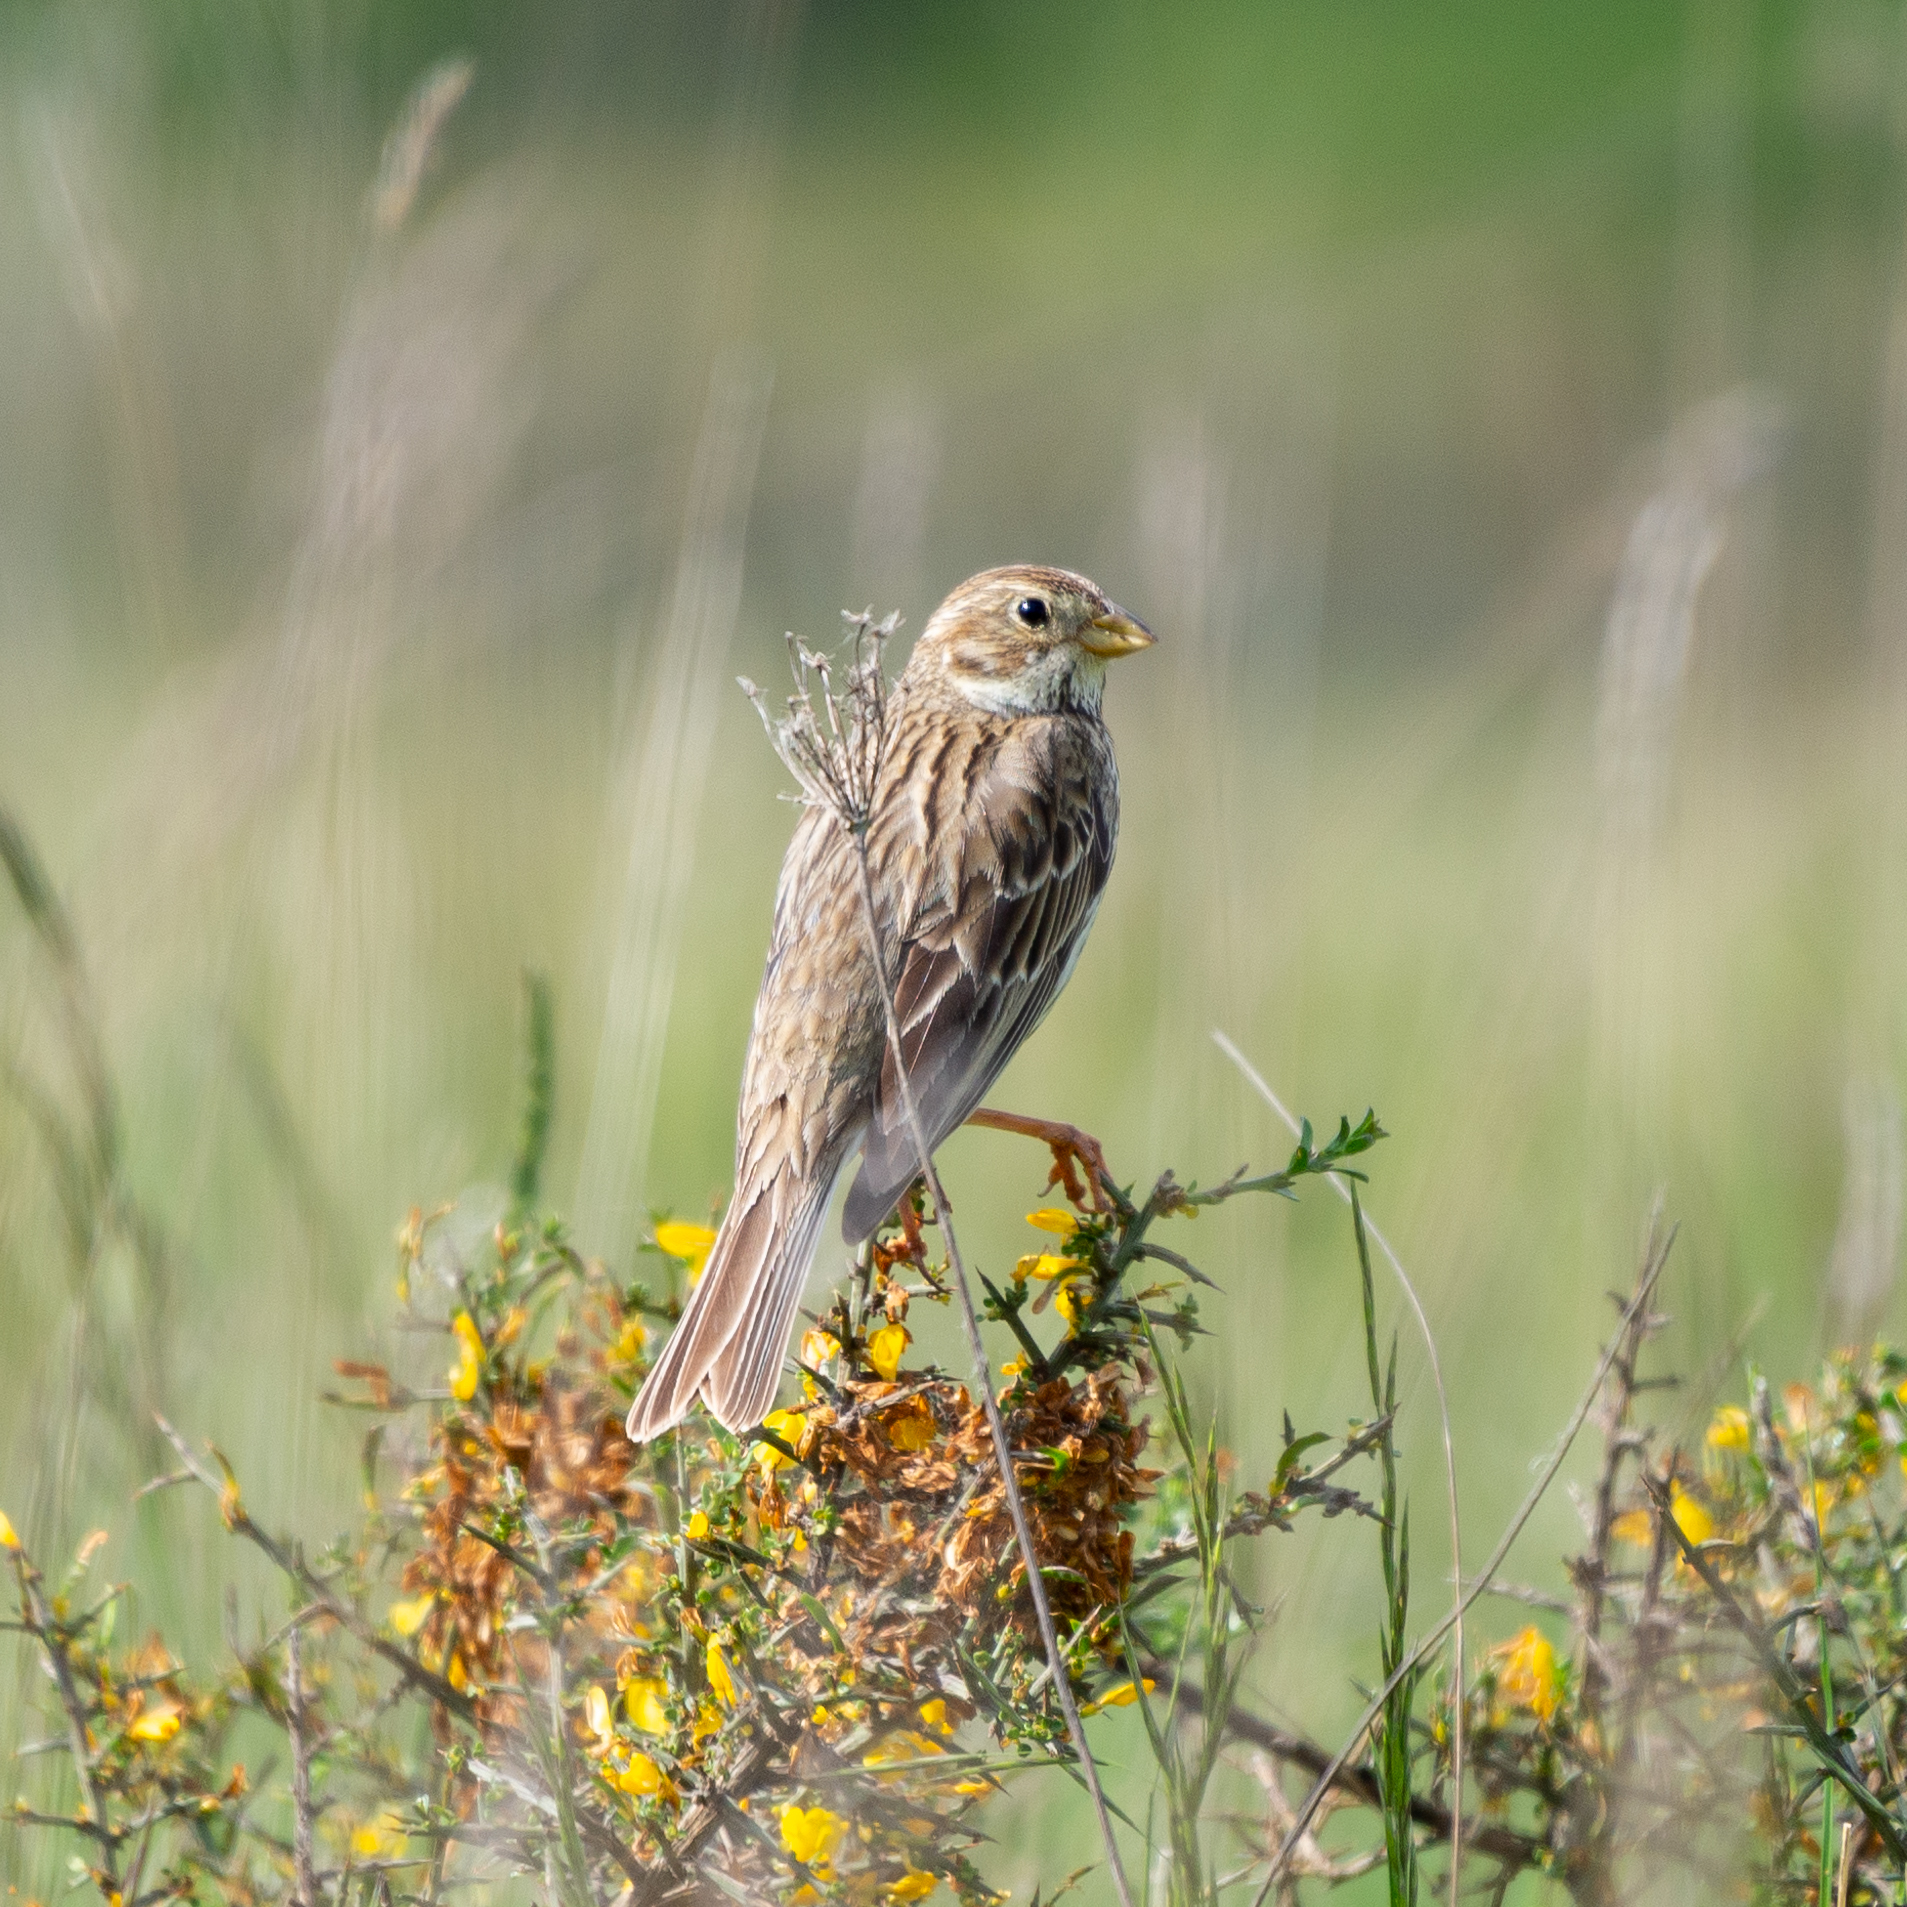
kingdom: Animalia
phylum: Chordata
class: Aves
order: Passeriformes
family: Emberizidae
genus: Emberiza
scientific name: Emberiza calandra
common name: Corn bunting
